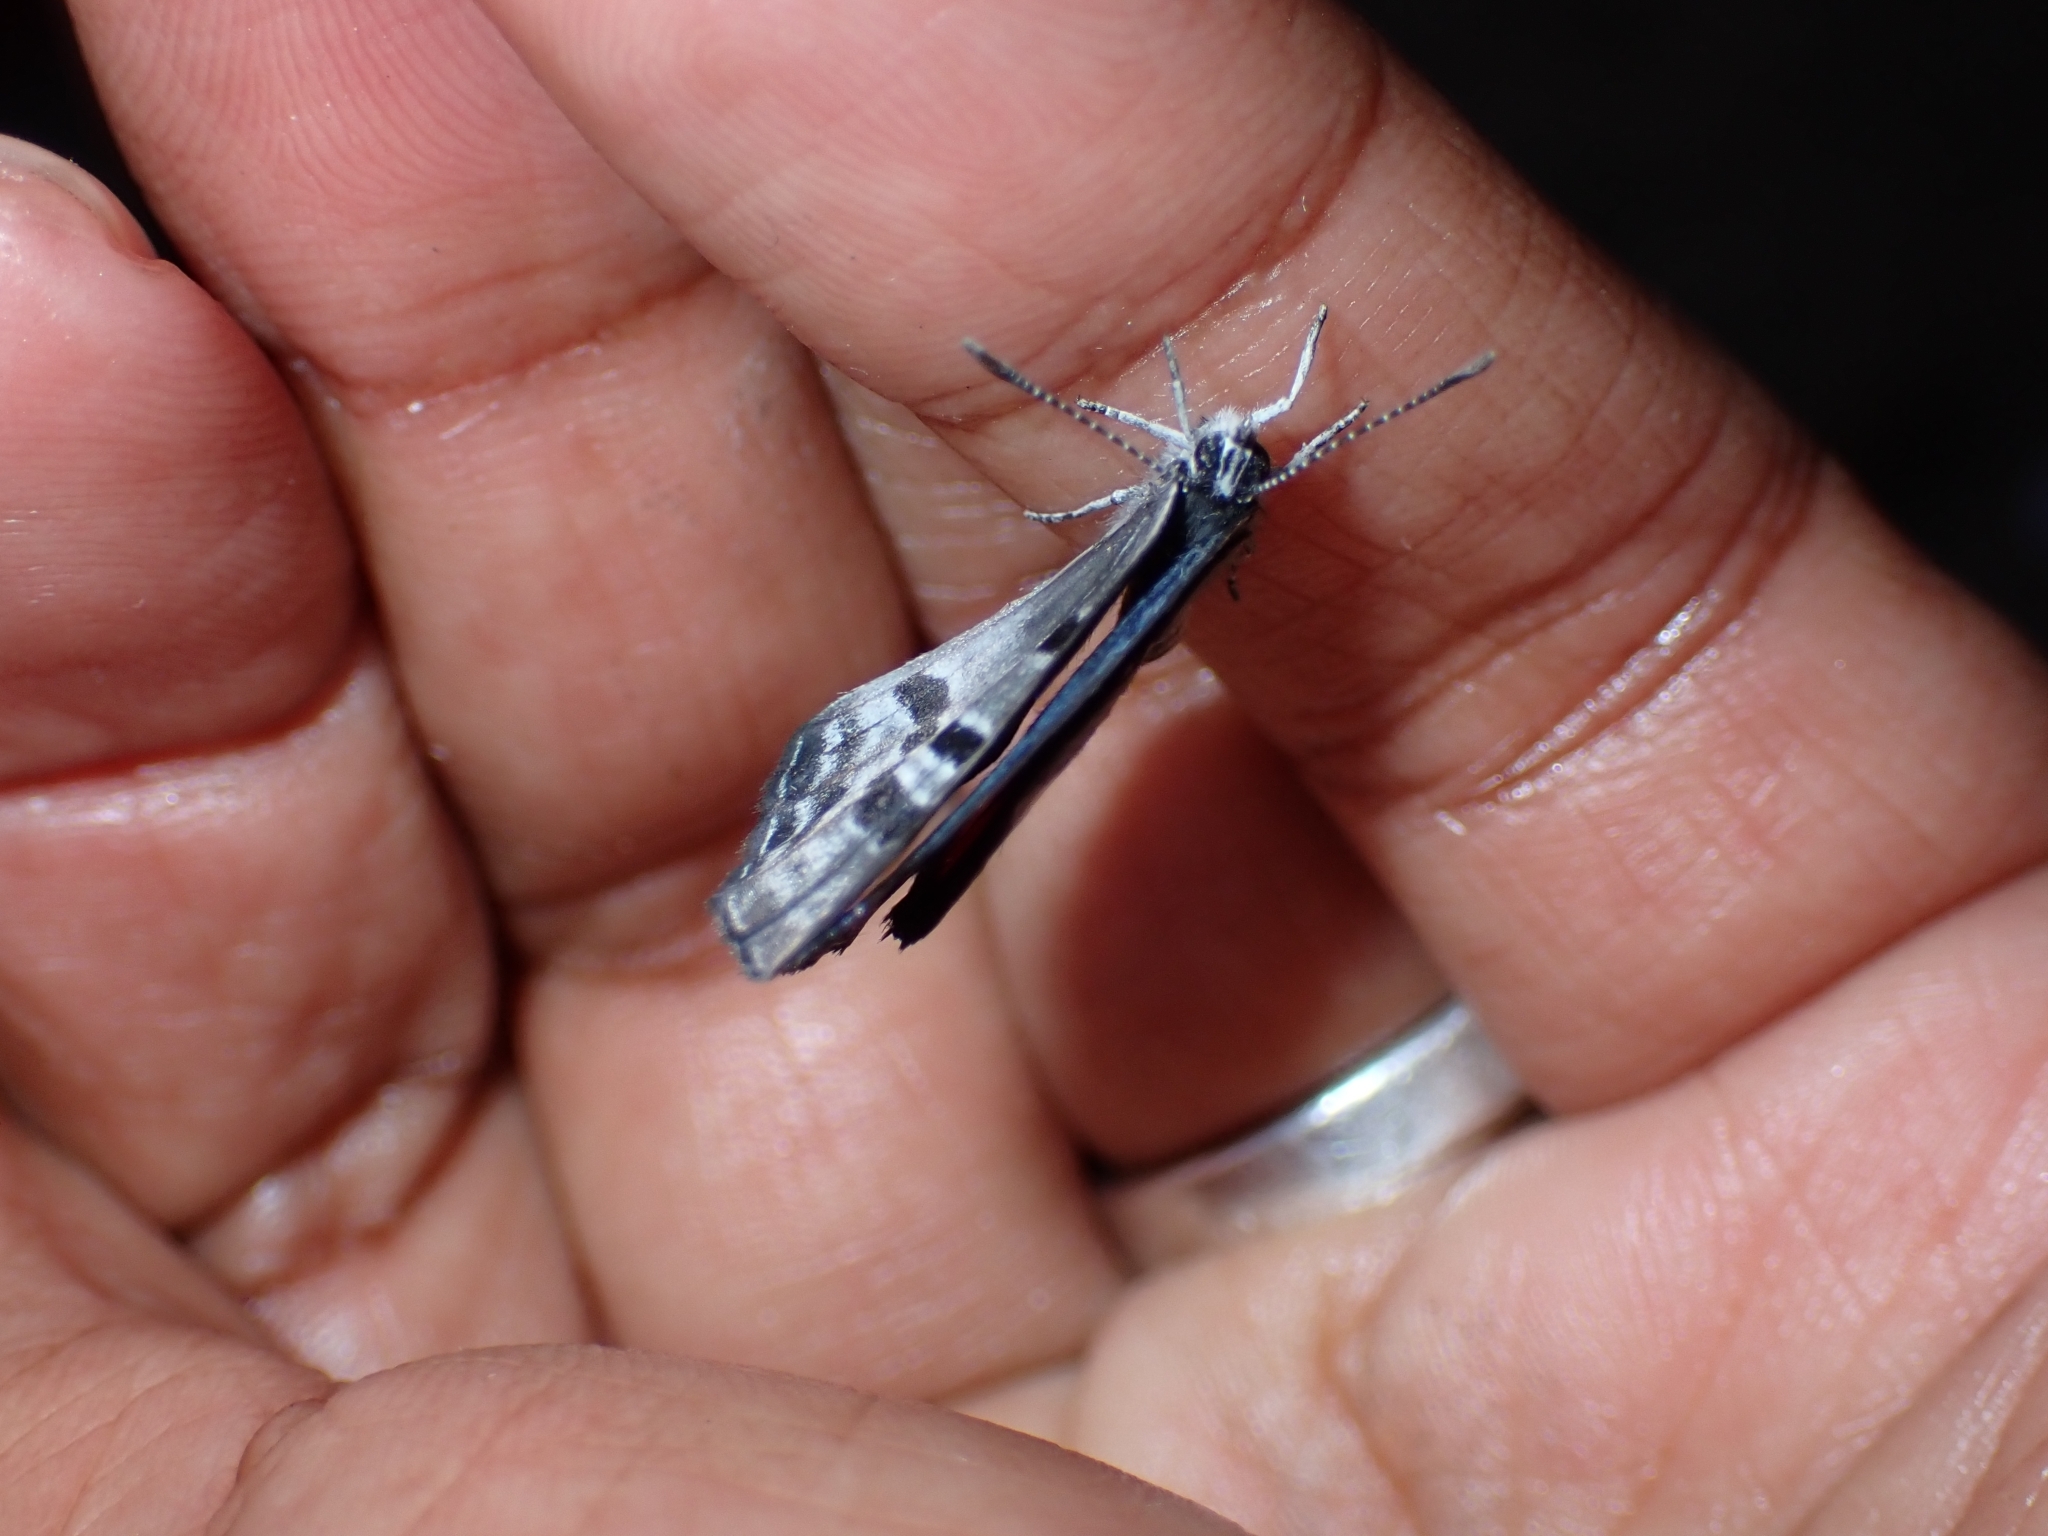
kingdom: Animalia
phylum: Arthropoda
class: Insecta
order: Lepidoptera
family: Lycaenidae
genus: Luthrodes
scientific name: Luthrodes cleotas
